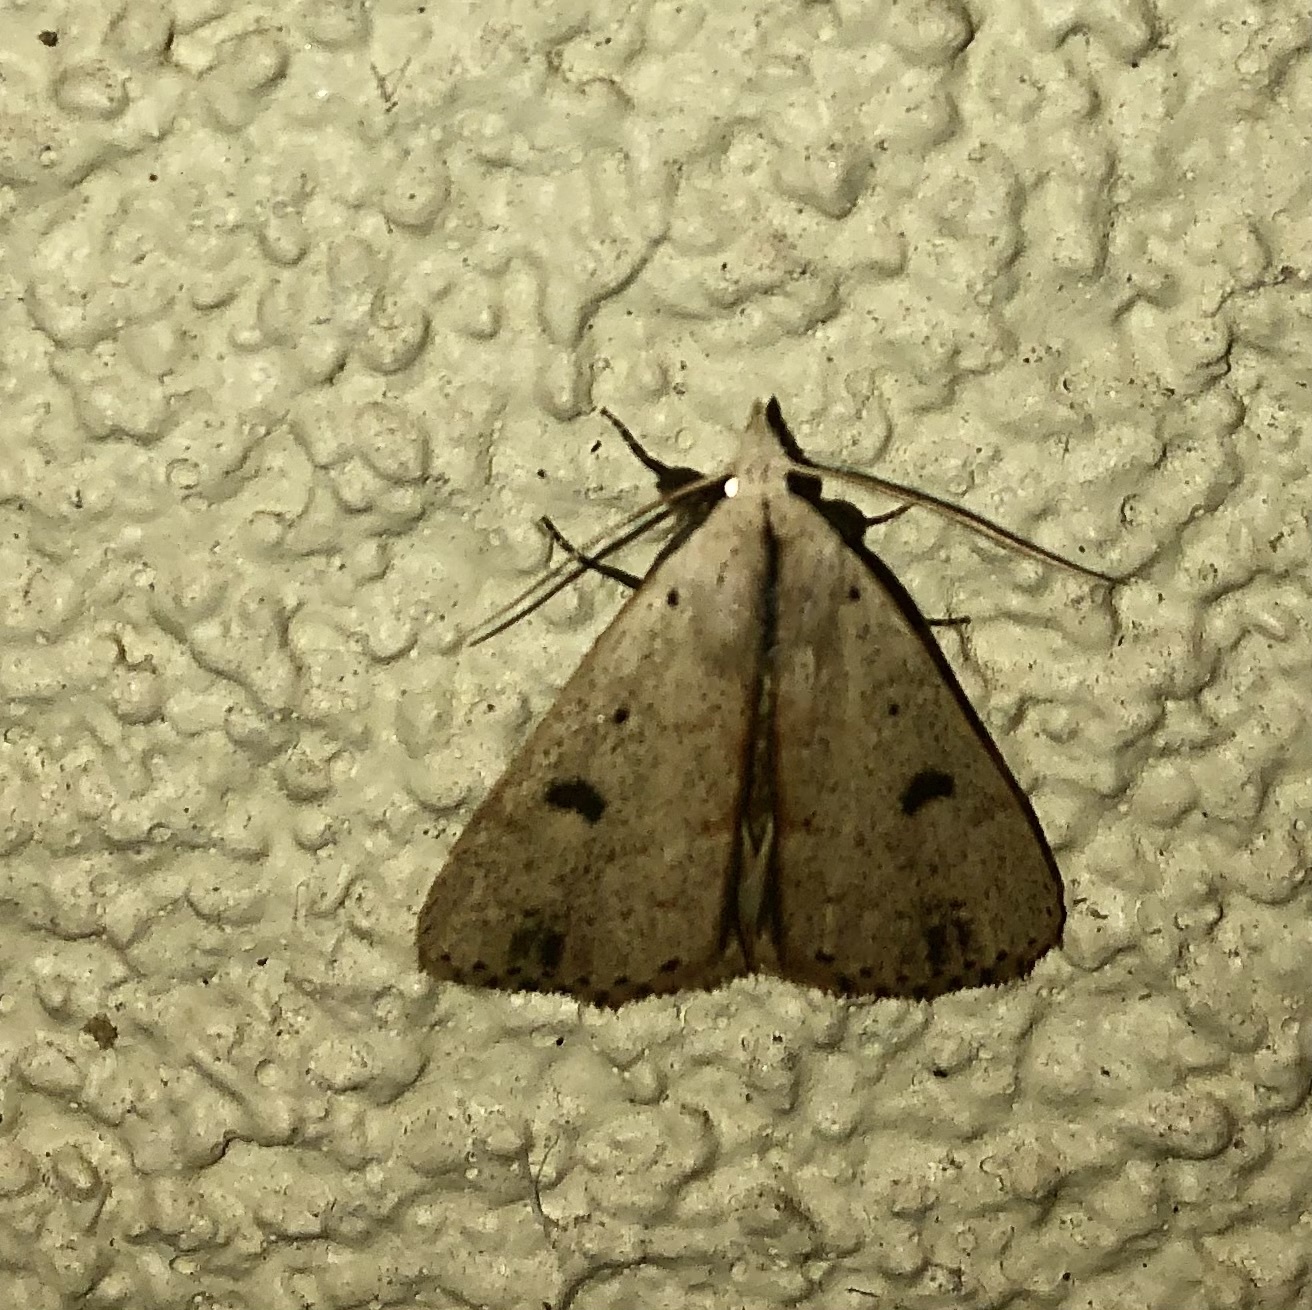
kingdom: Animalia
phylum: Arthropoda
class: Insecta
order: Lepidoptera
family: Erebidae
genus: Scolecocampa
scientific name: Scolecocampa liburna
